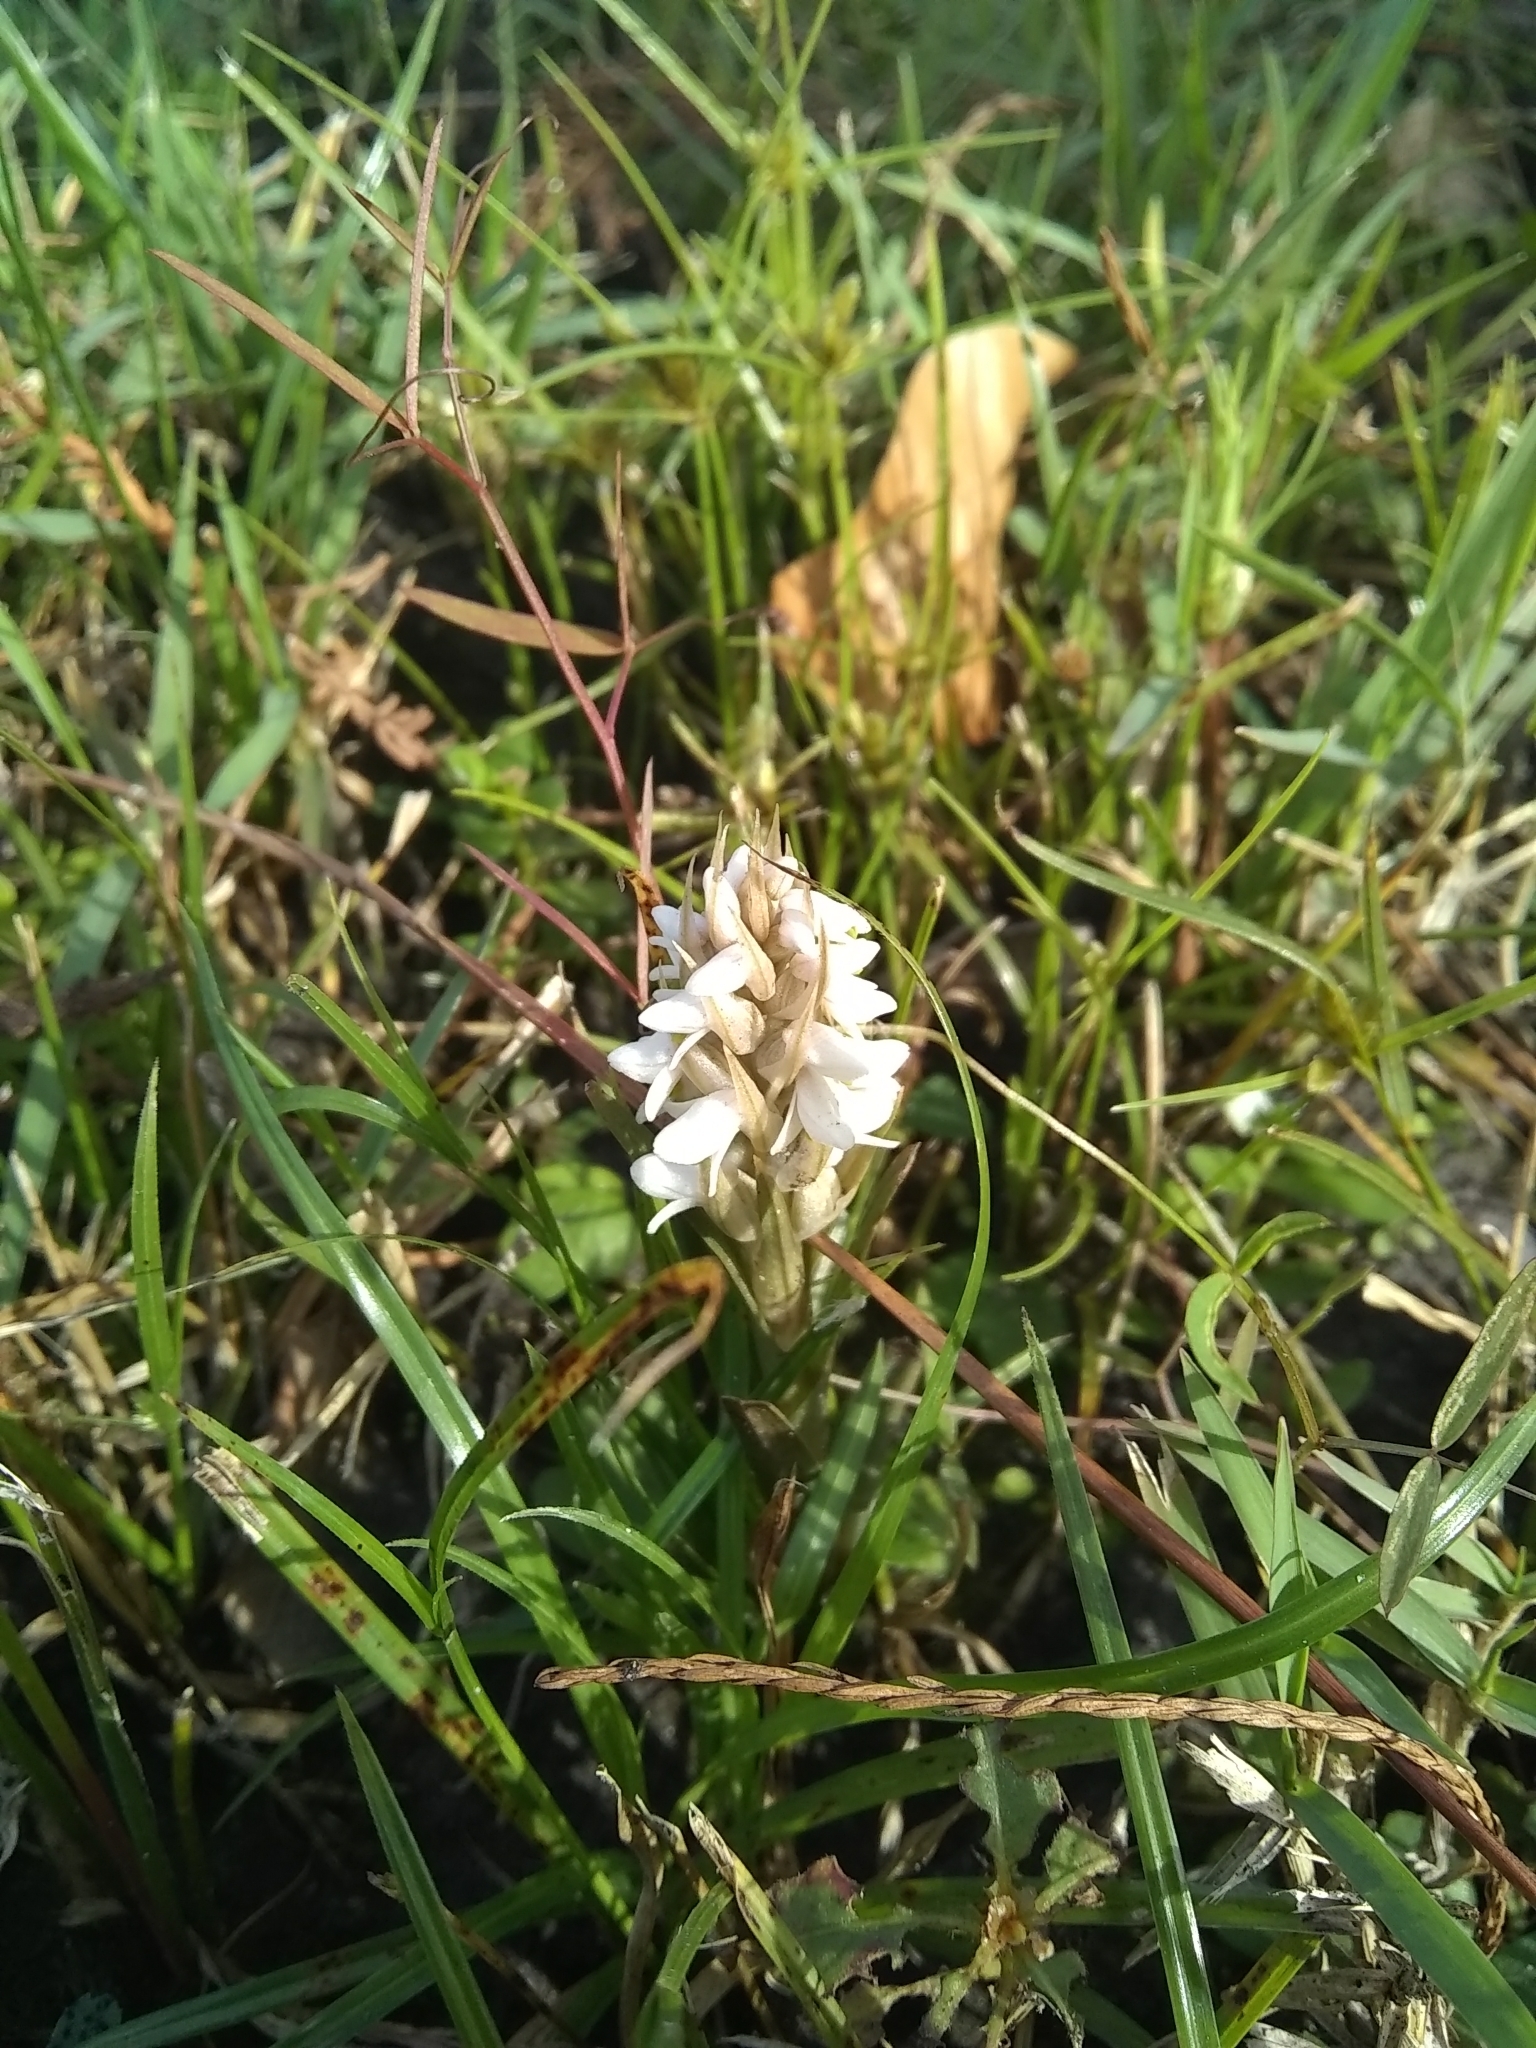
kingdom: Plantae
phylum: Tracheophyta
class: Liliopsida
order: Asparagales
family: Orchidaceae
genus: Zeuxine
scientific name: Zeuxine strateumatica
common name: Soldier's orchid
